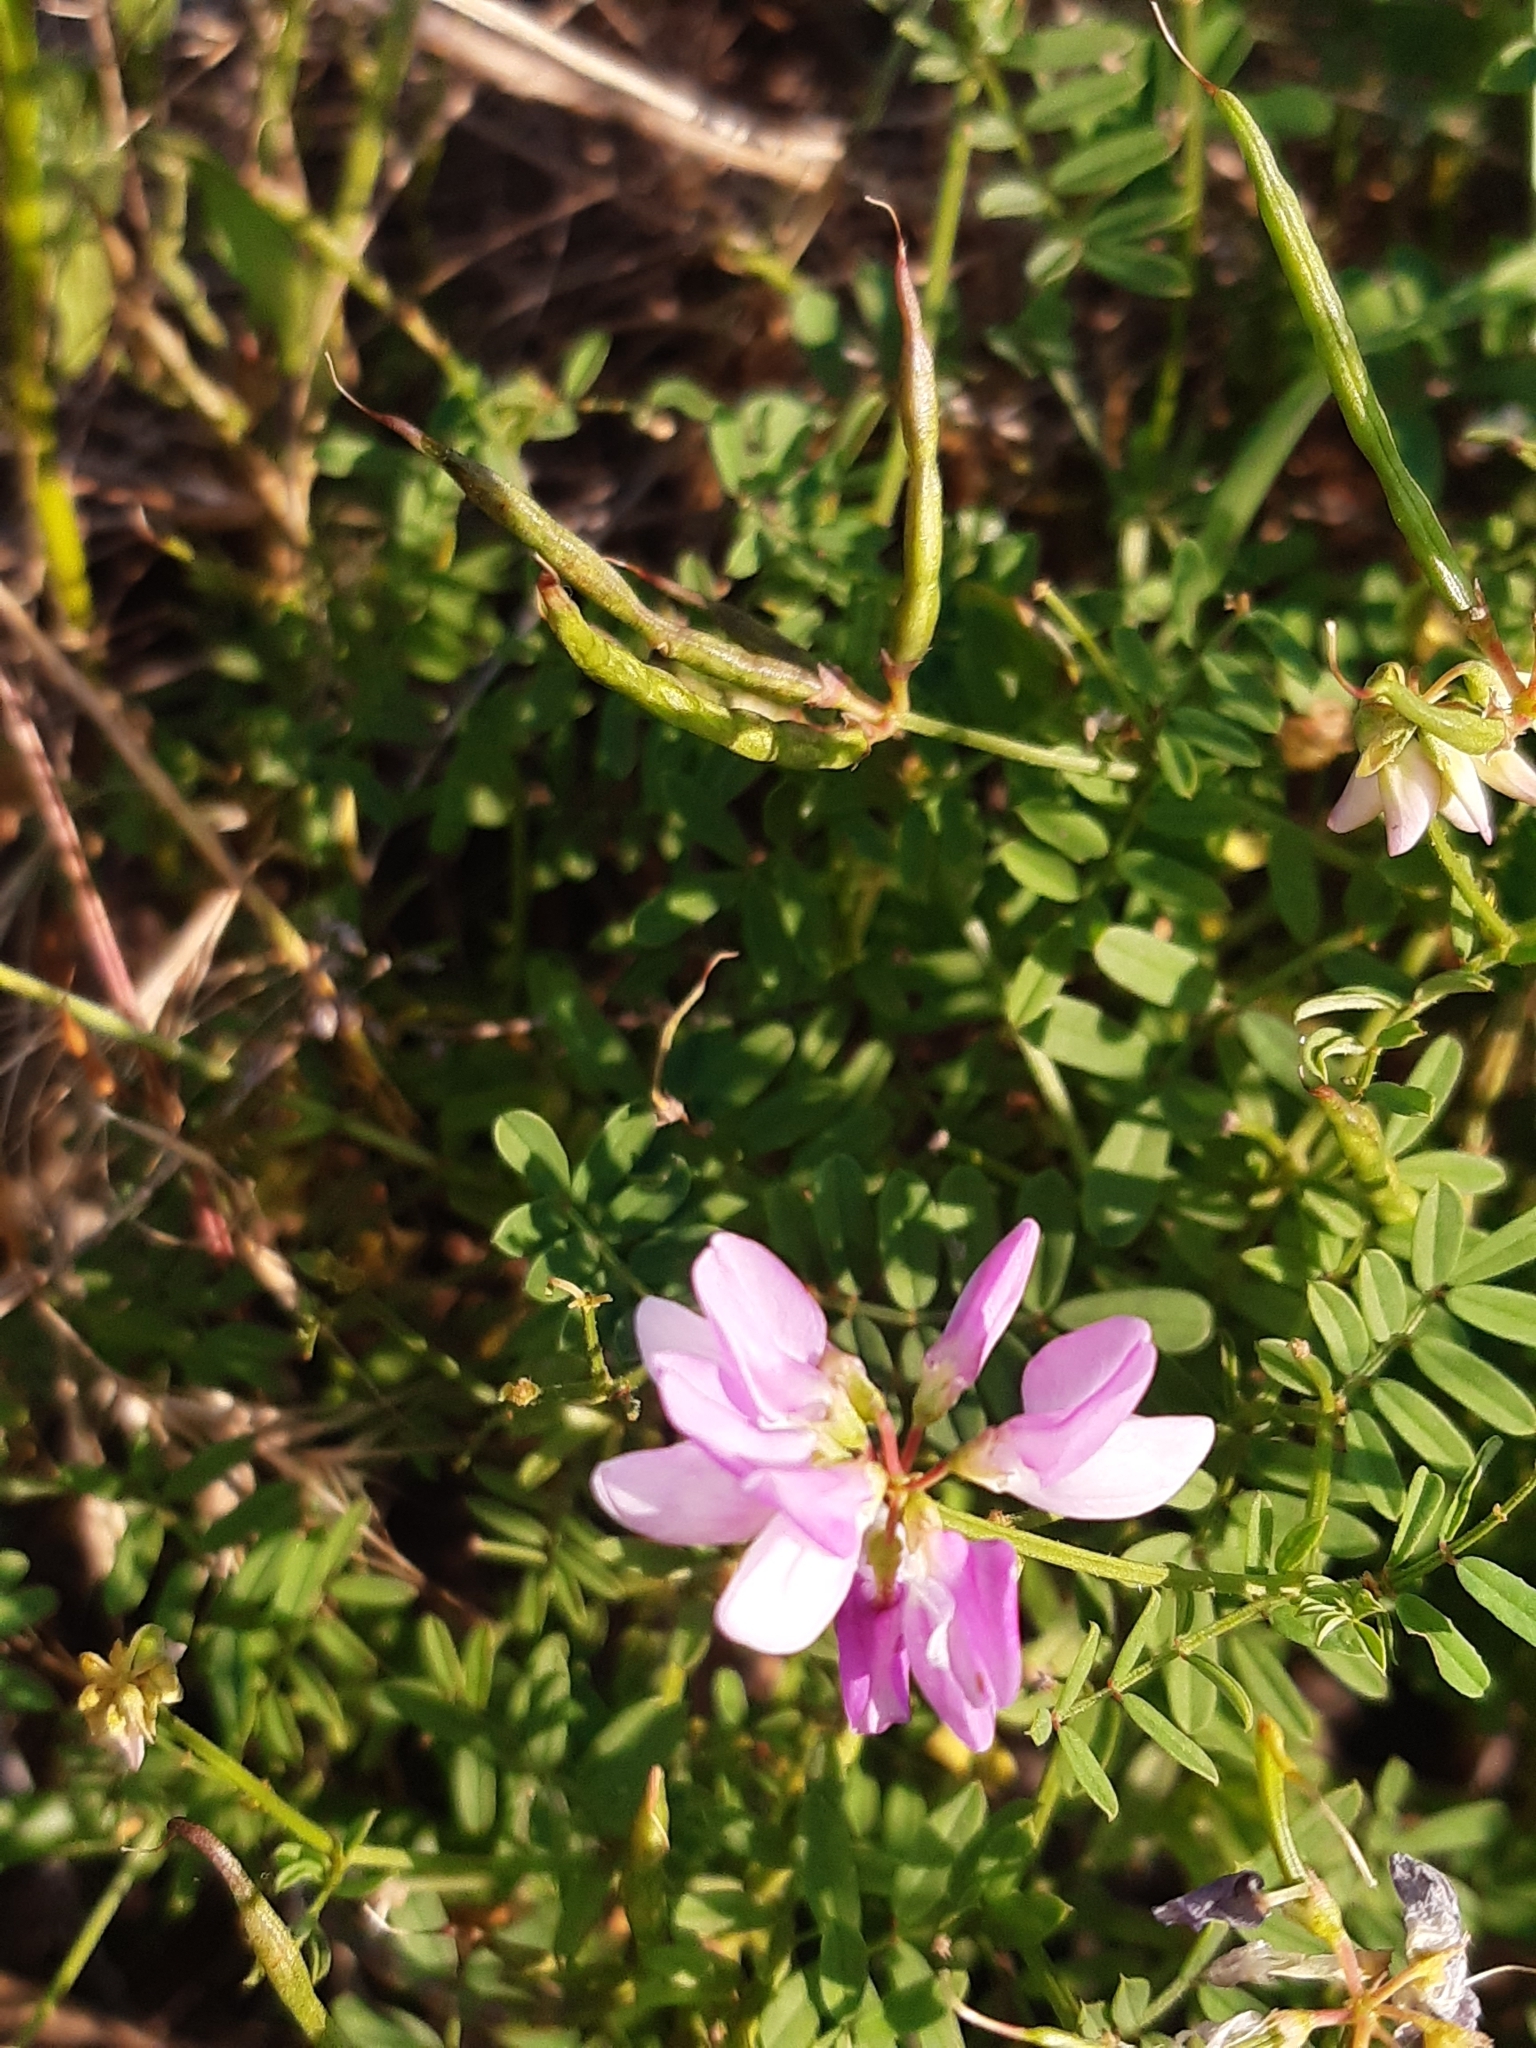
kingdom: Plantae
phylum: Tracheophyta
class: Magnoliopsida
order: Fabales
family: Fabaceae
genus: Coronilla
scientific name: Coronilla varia
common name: Crownvetch
